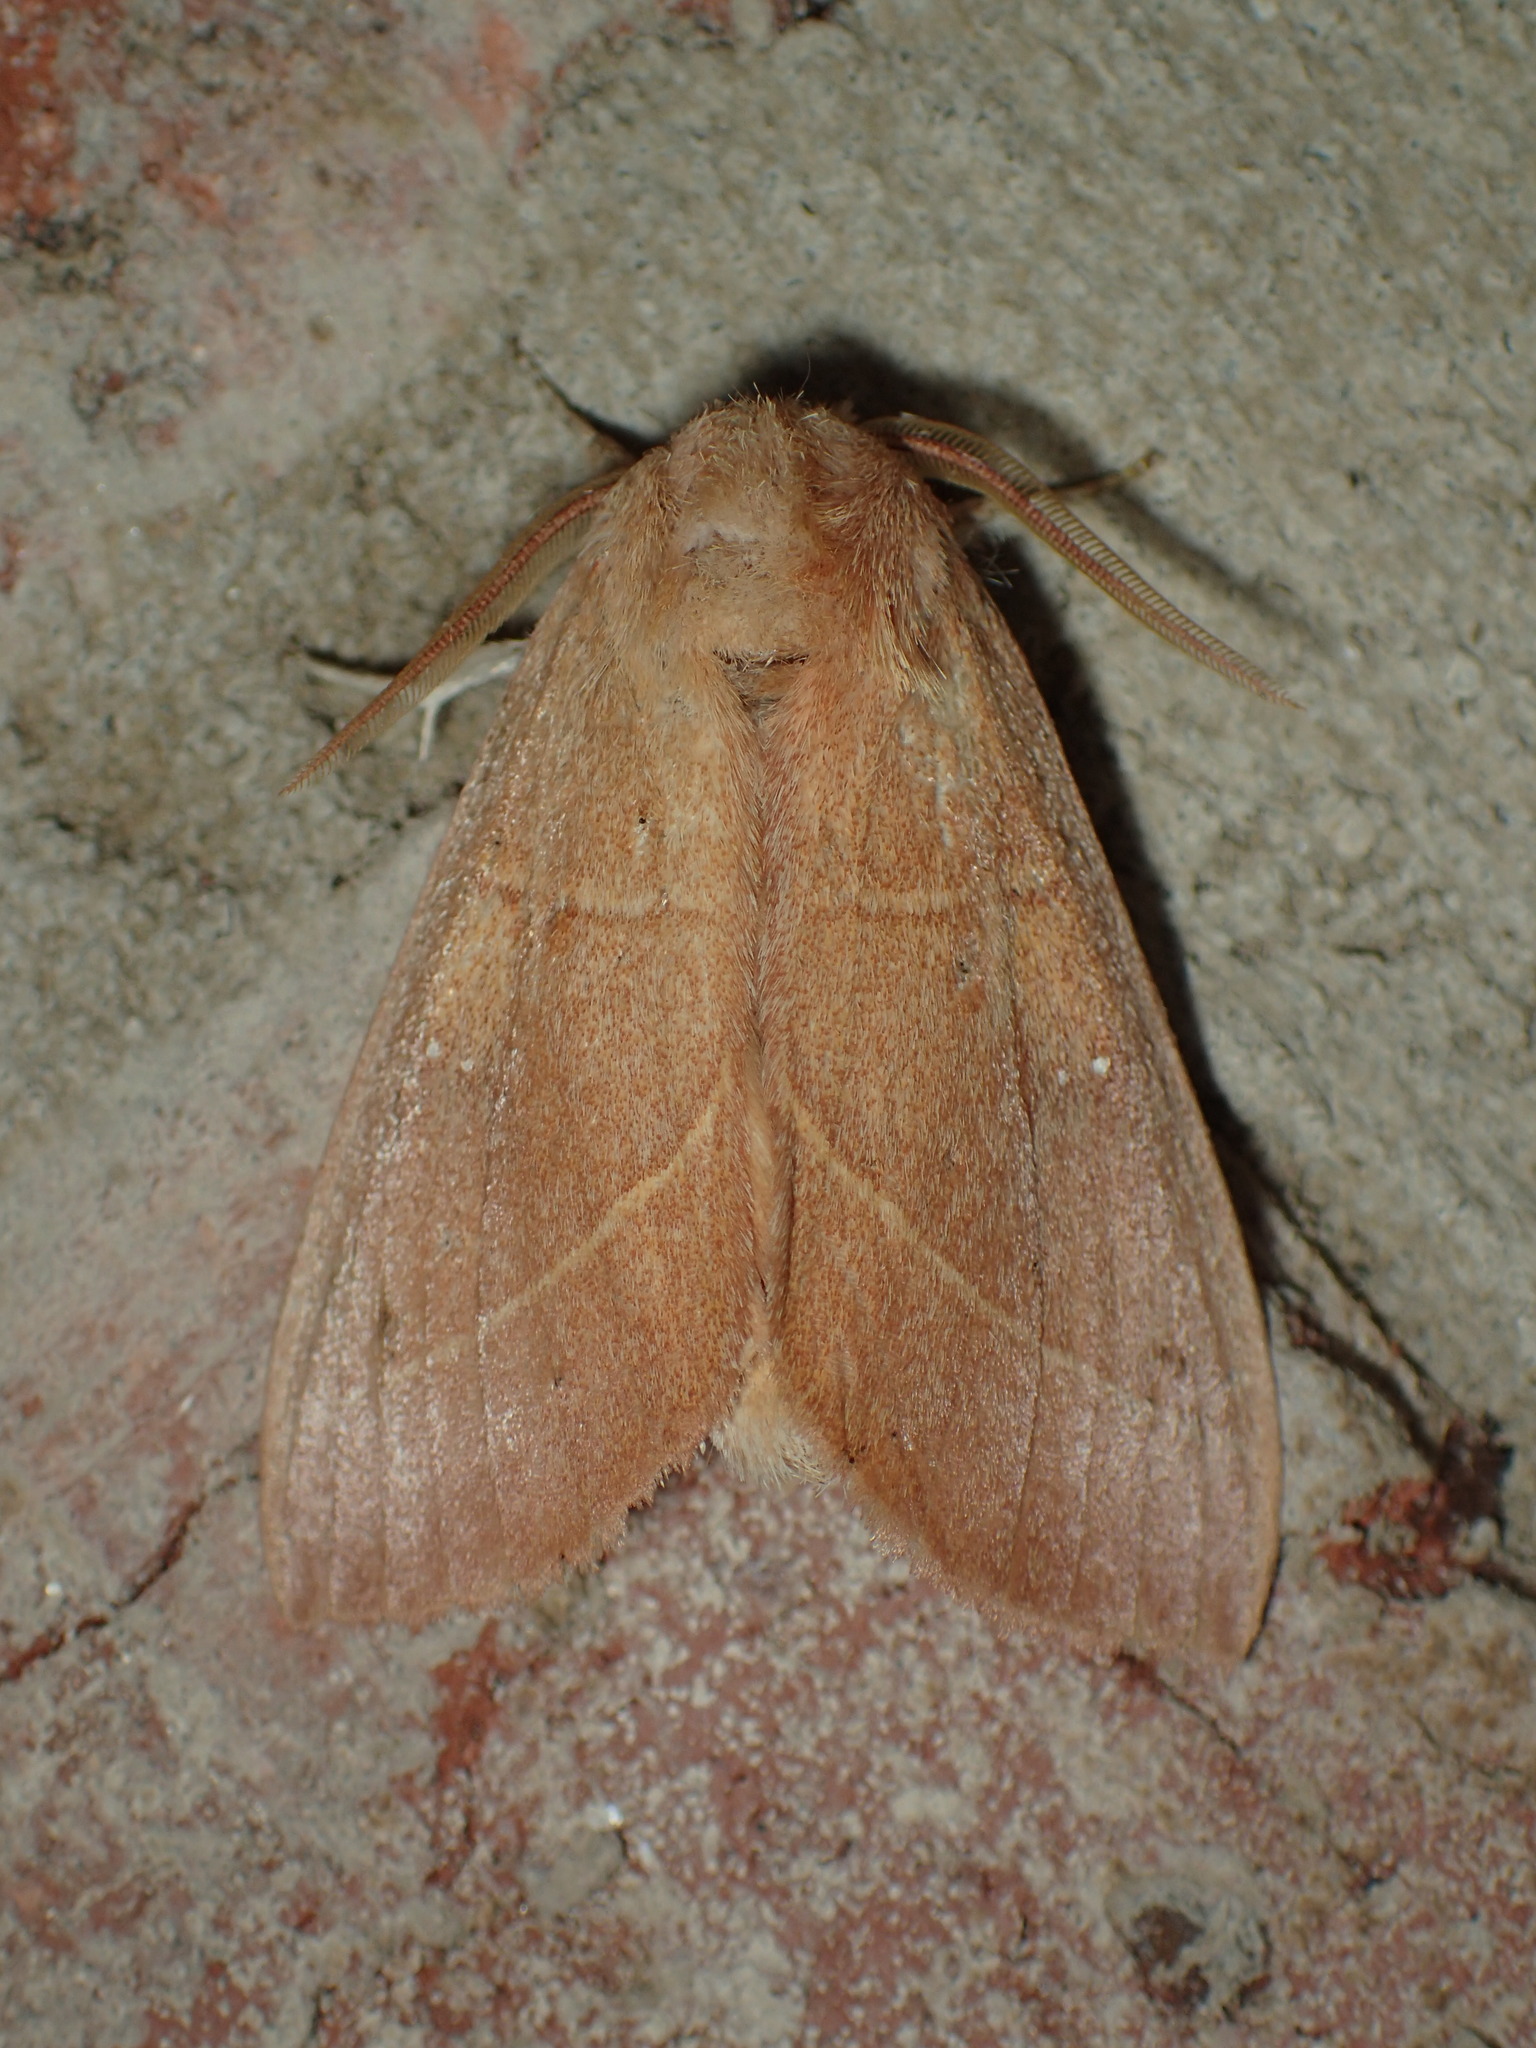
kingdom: Animalia
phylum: Arthropoda
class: Insecta
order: Lepidoptera
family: Notodontidae
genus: Nadata
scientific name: Nadata gibbosa
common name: White-dotted prominent
